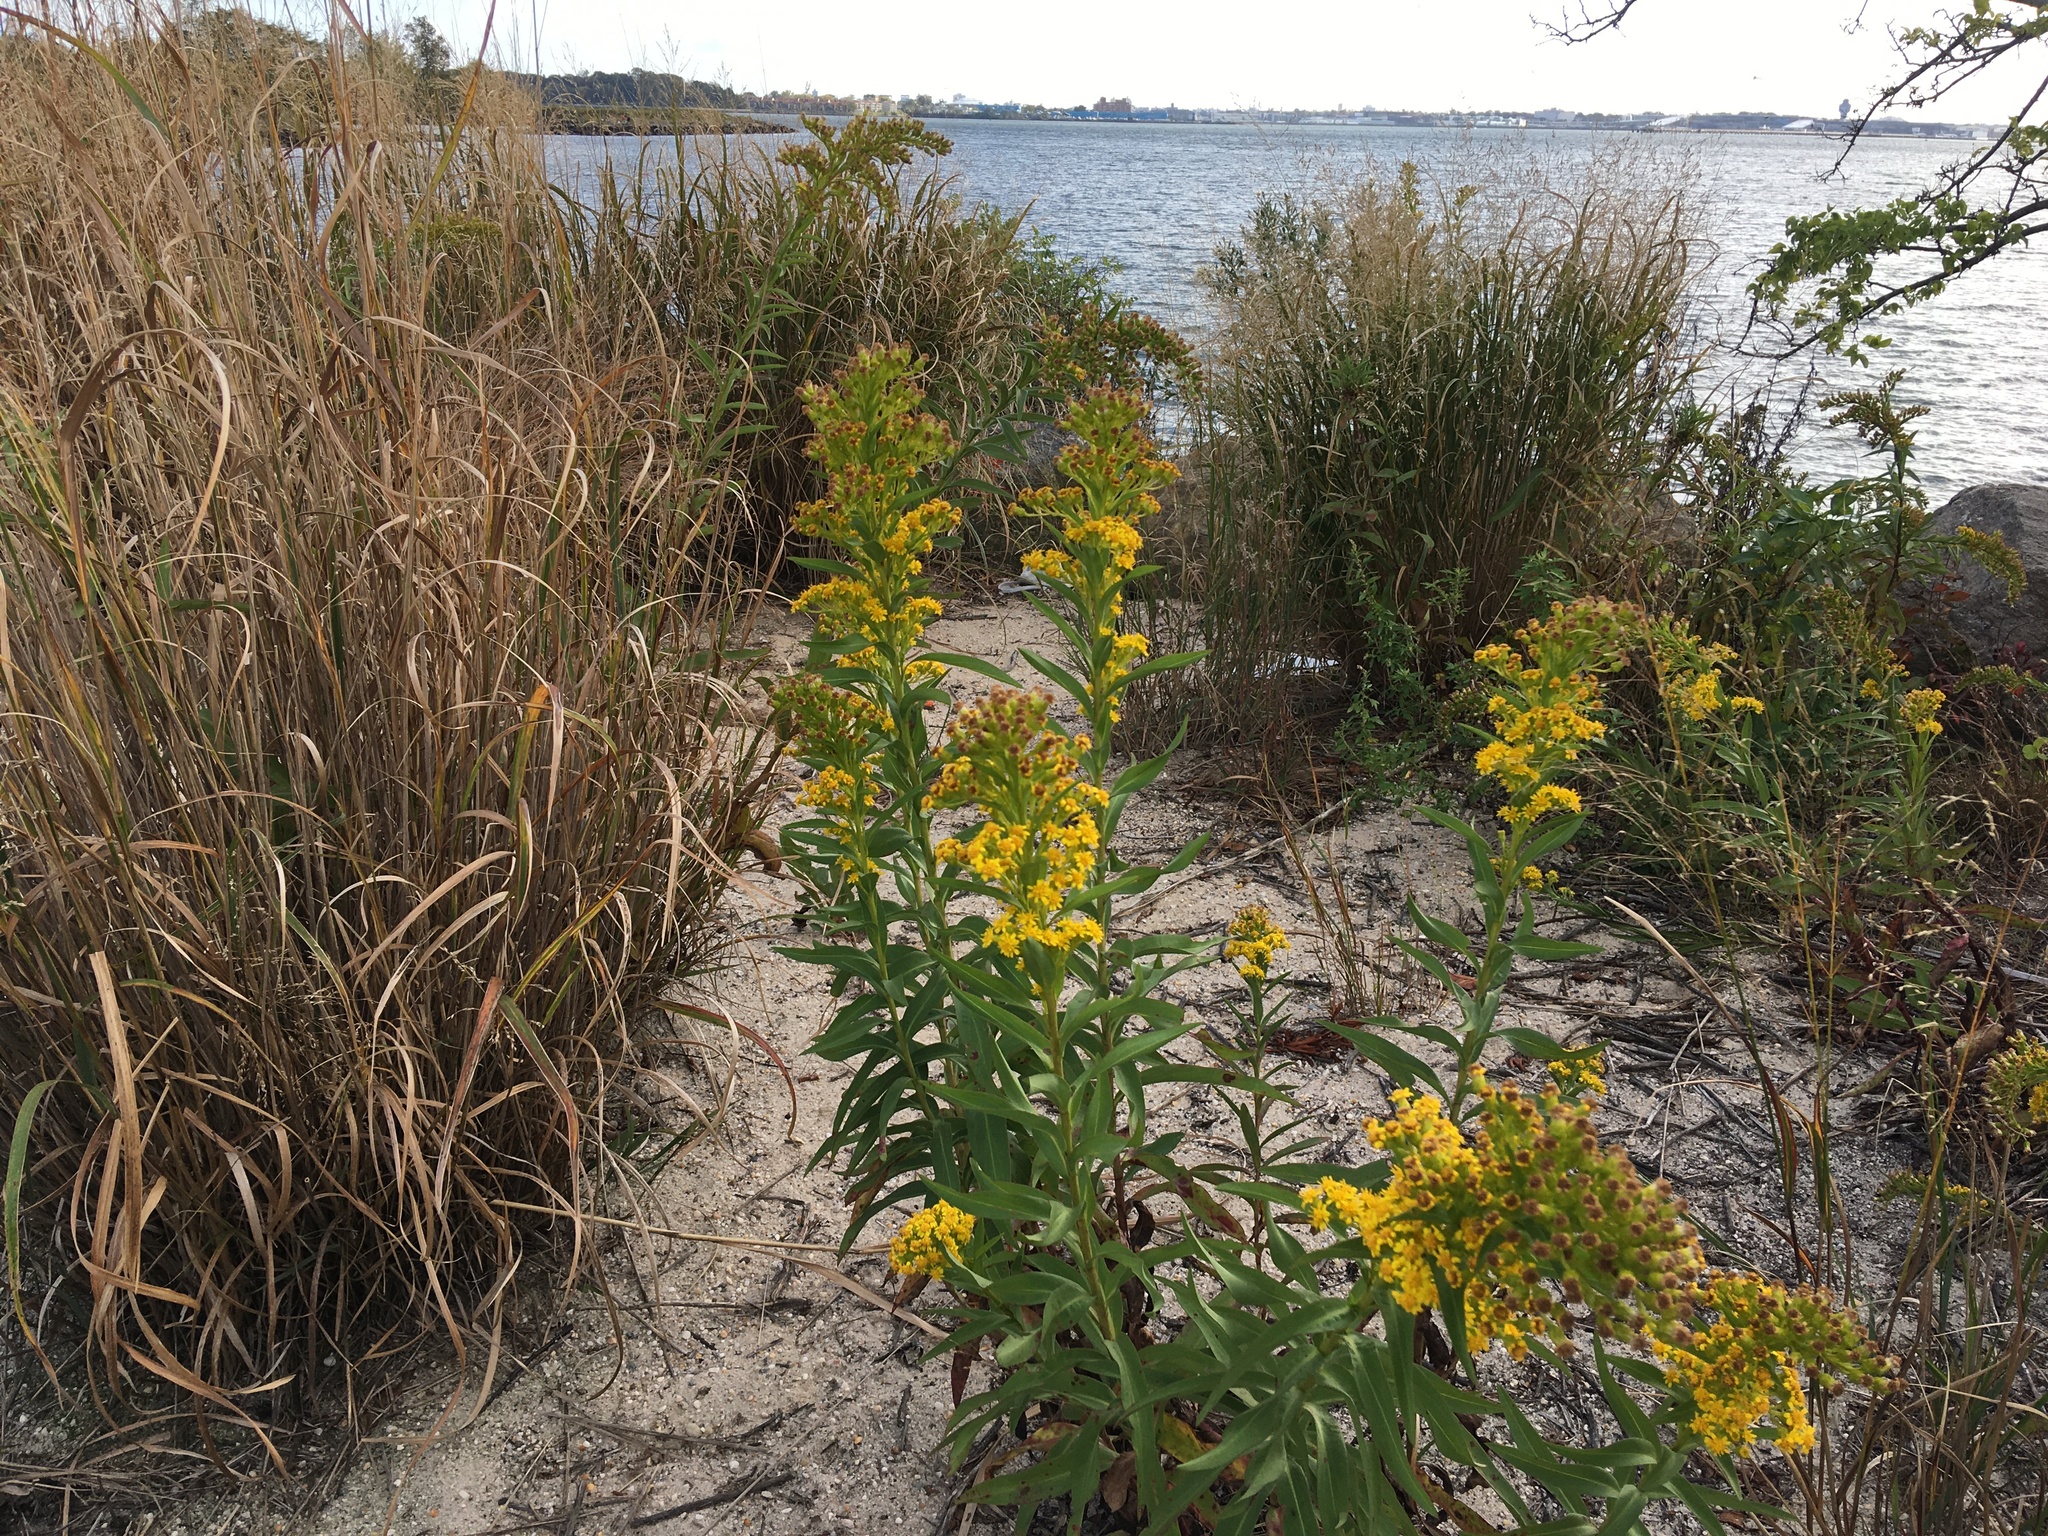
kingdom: Plantae
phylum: Tracheophyta
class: Magnoliopsida
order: Asterales
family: Asteraceae
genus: Solidago
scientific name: Solidago sempervirens
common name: Salt-marsh goldenrod
